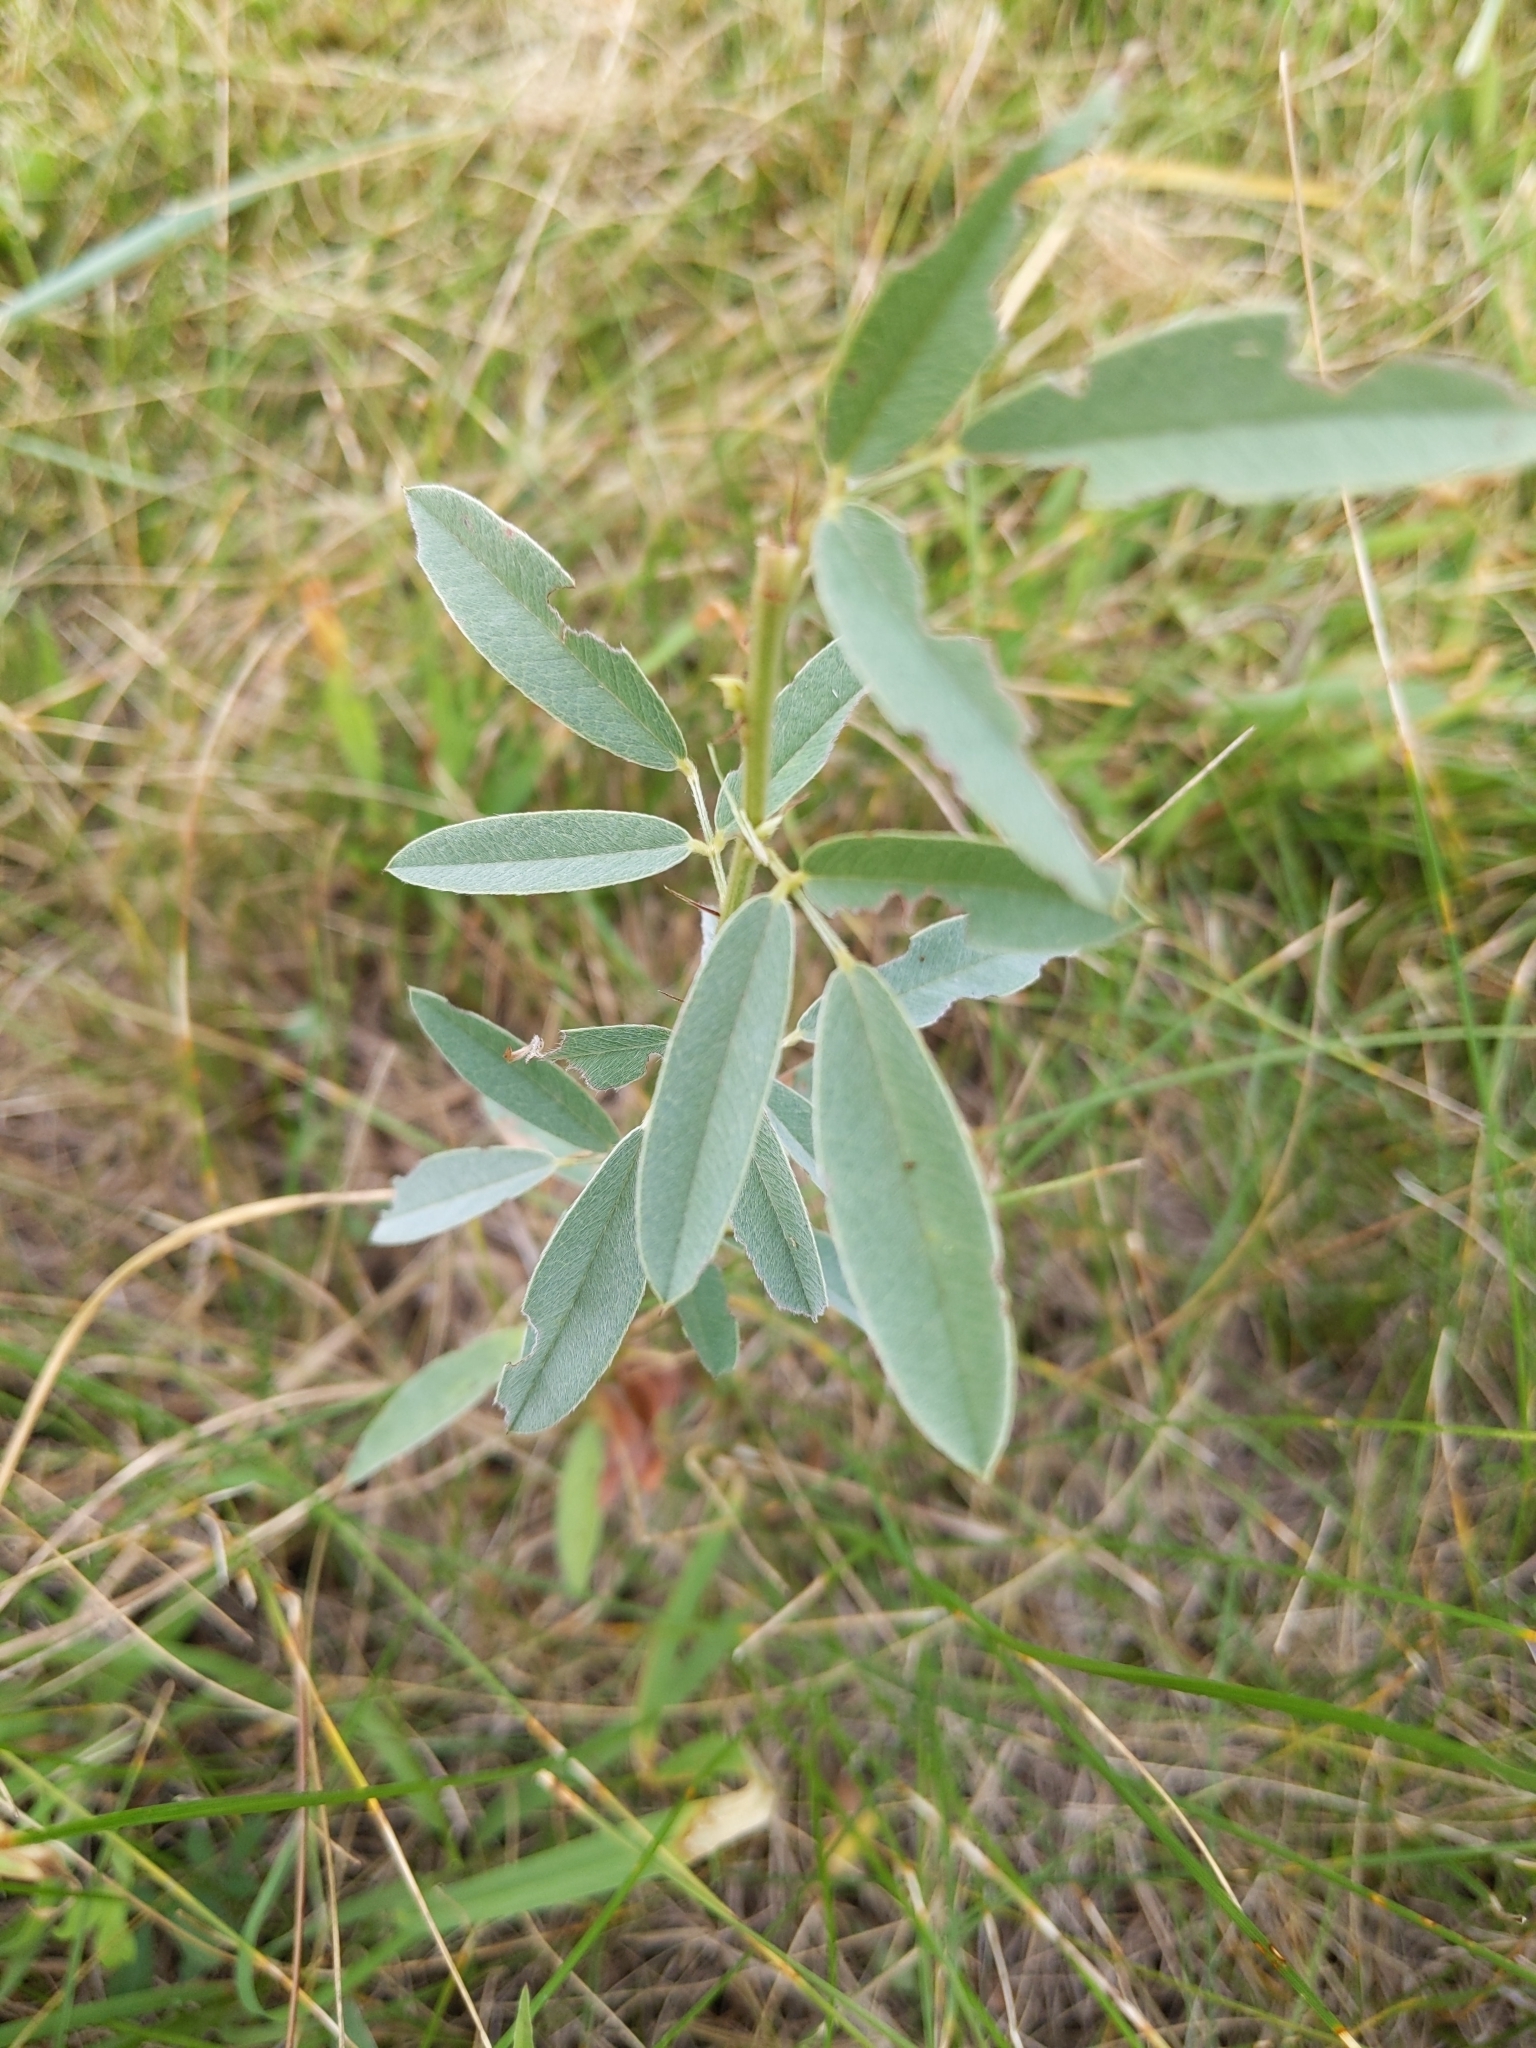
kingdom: Plantae
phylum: Tracheophyta
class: Magnoliopsida
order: Fabales
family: Fabaceae
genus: Lespedeza
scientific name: Lespedeza capitata
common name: Dusty clover
